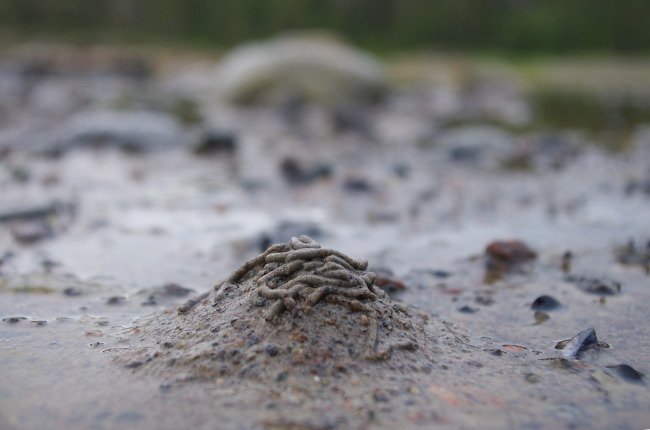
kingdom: Animalia
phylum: Annelida
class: Polychaeta
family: Arenicolidae
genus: Arenicola
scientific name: Arenicola marina
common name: Blow lugworm
